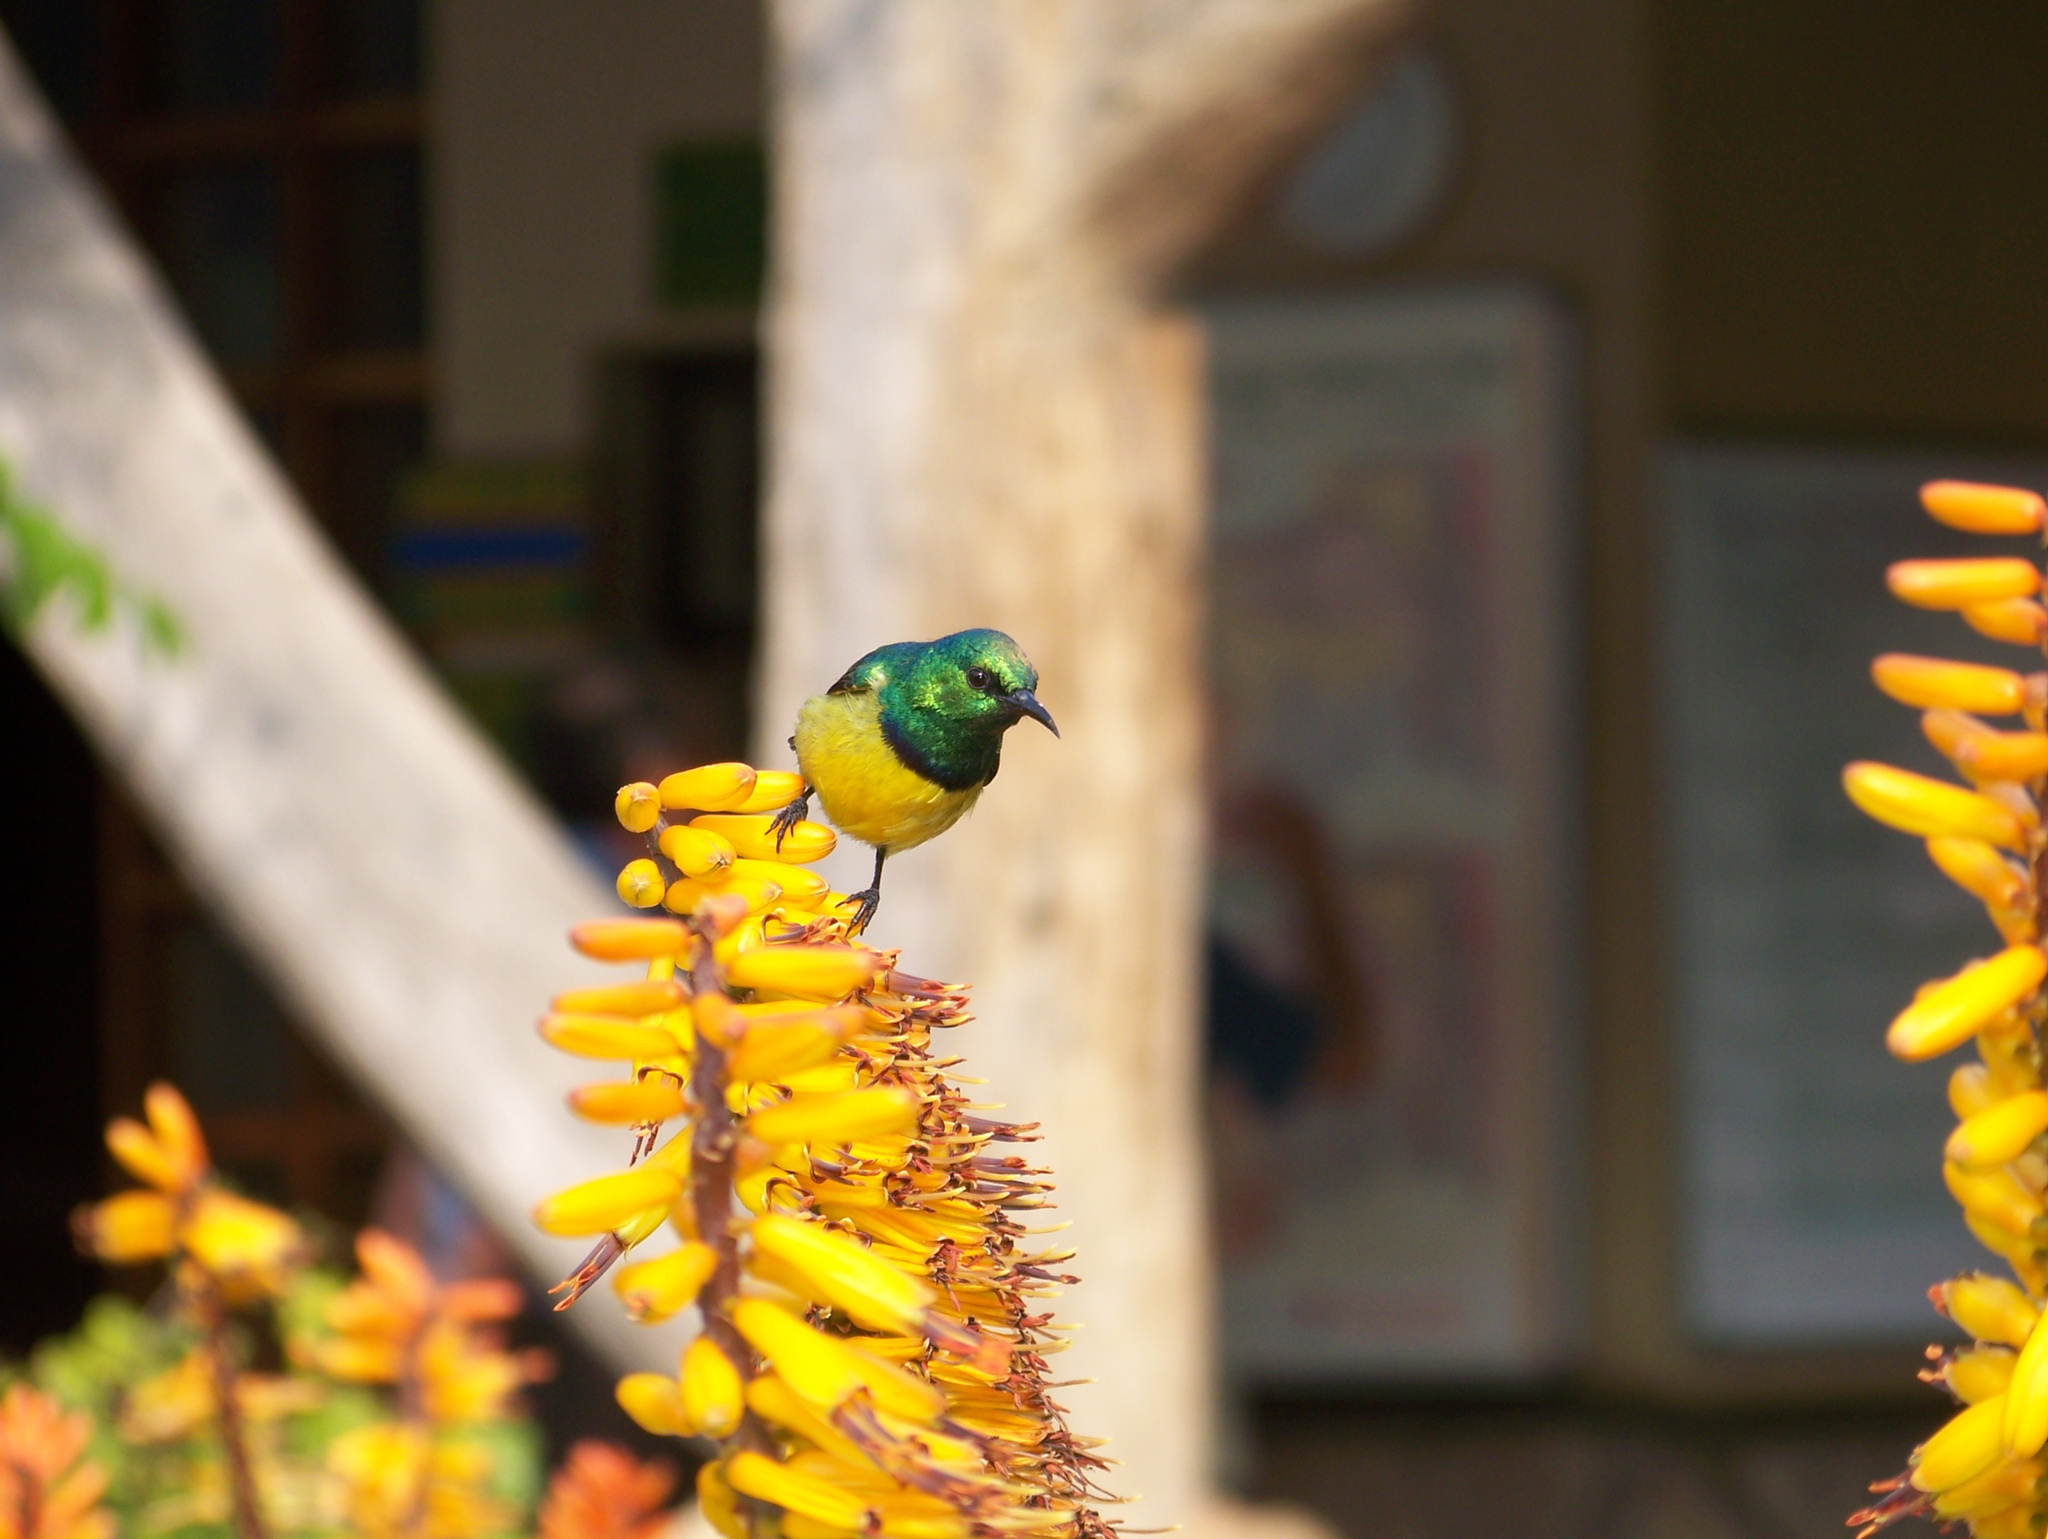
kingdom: Animalia
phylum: Chordata
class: Aves
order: Passeriformes
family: Nectariniidae
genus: Hedydipna
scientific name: Hedydipna collaris
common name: Collared sunbird
